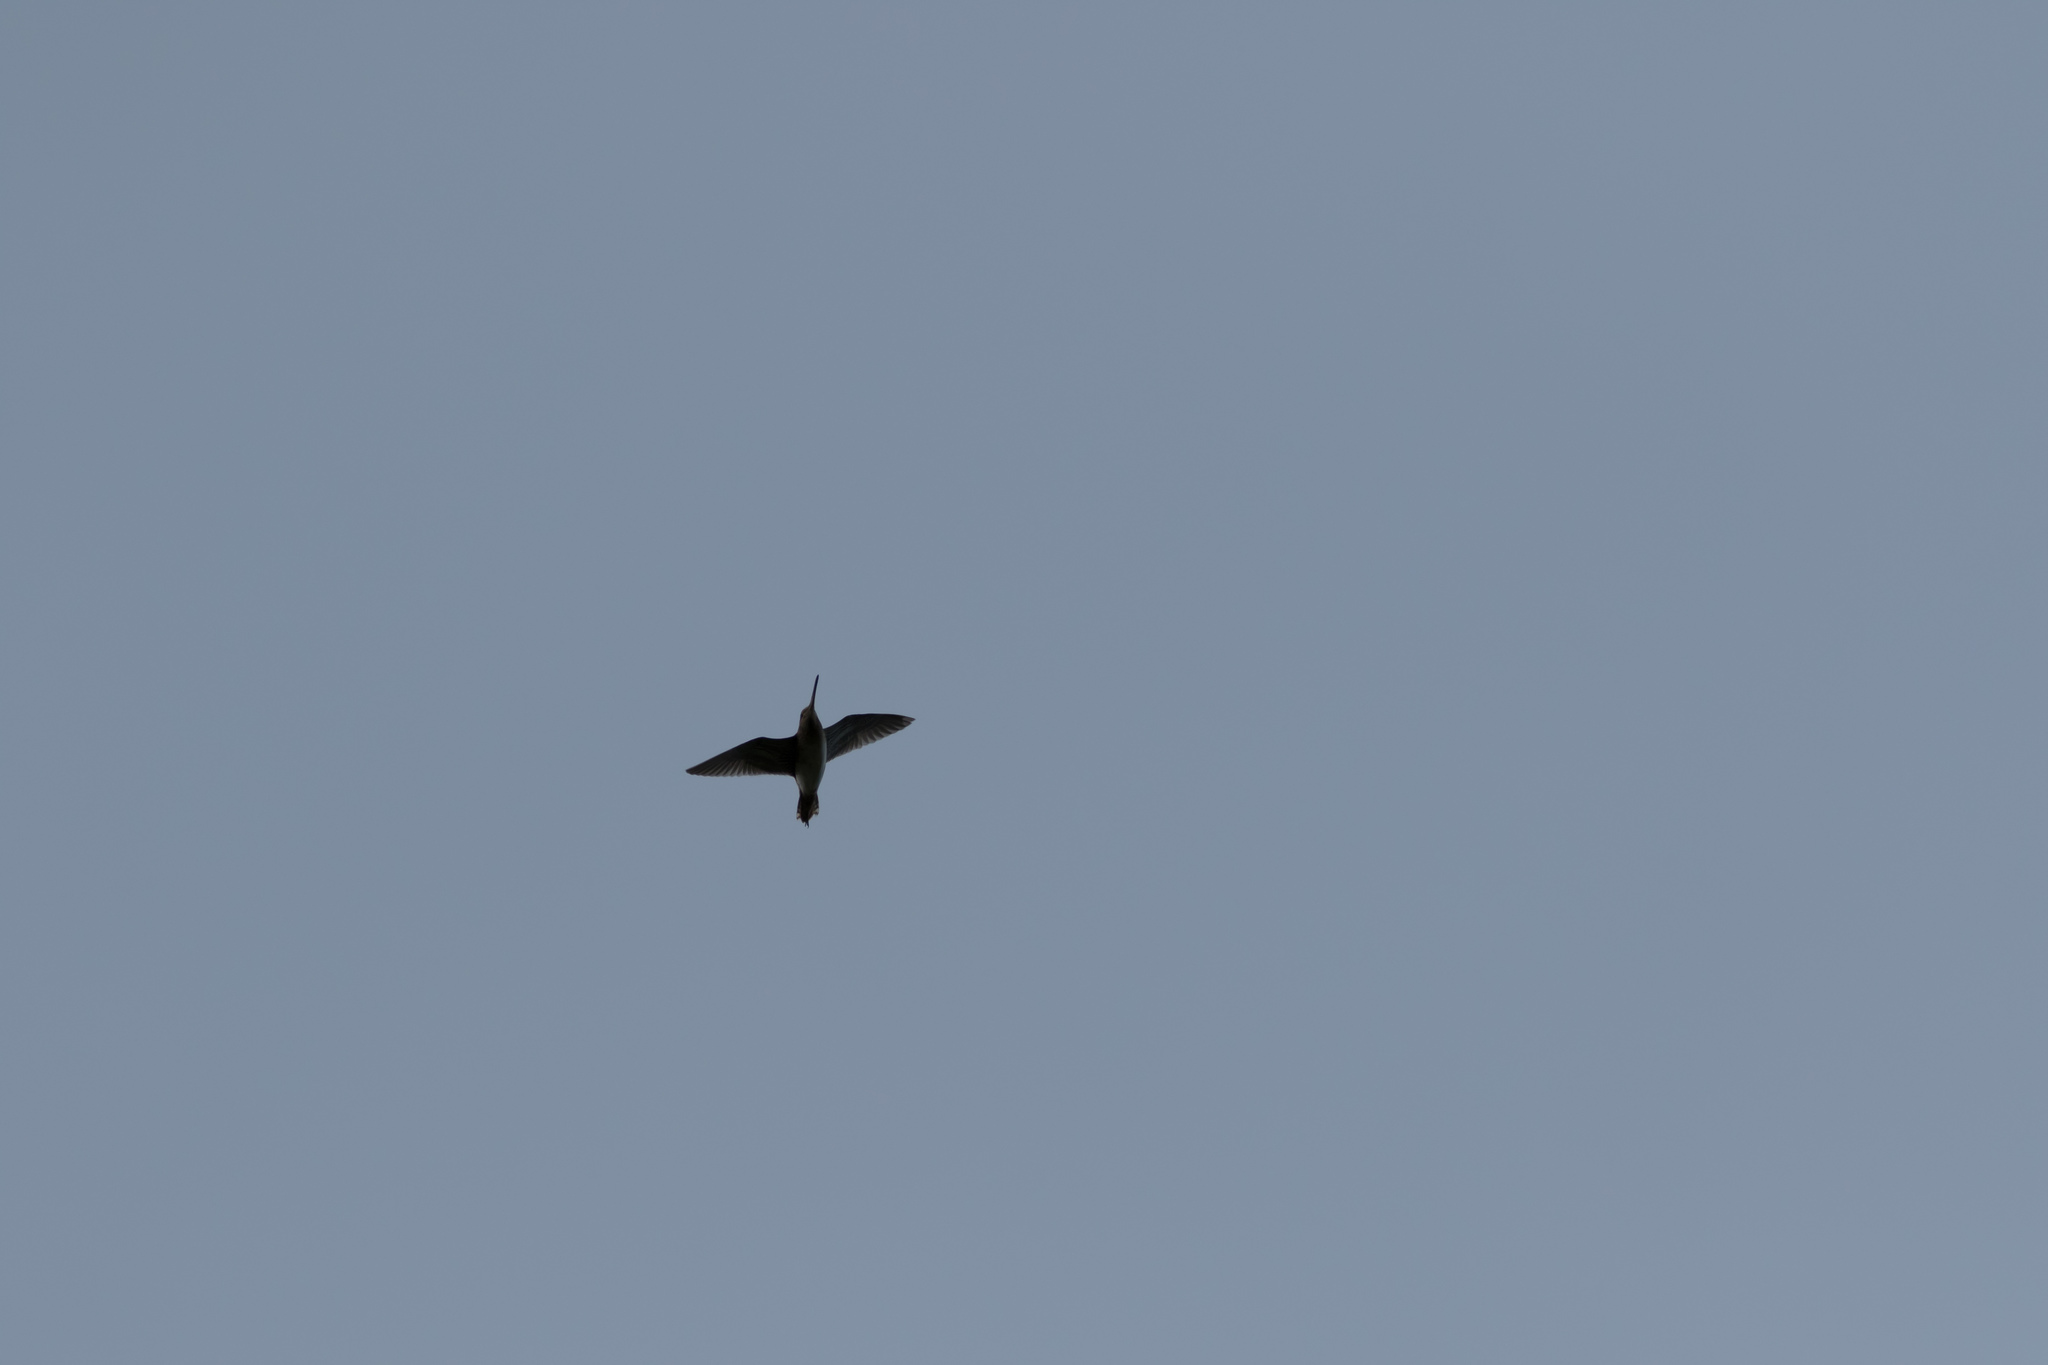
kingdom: Animalia
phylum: Chordata
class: Aves
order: Charadriiformes
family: Scolopacidae
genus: Gallinago
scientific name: Gallinago gallinago
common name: Common snipe
